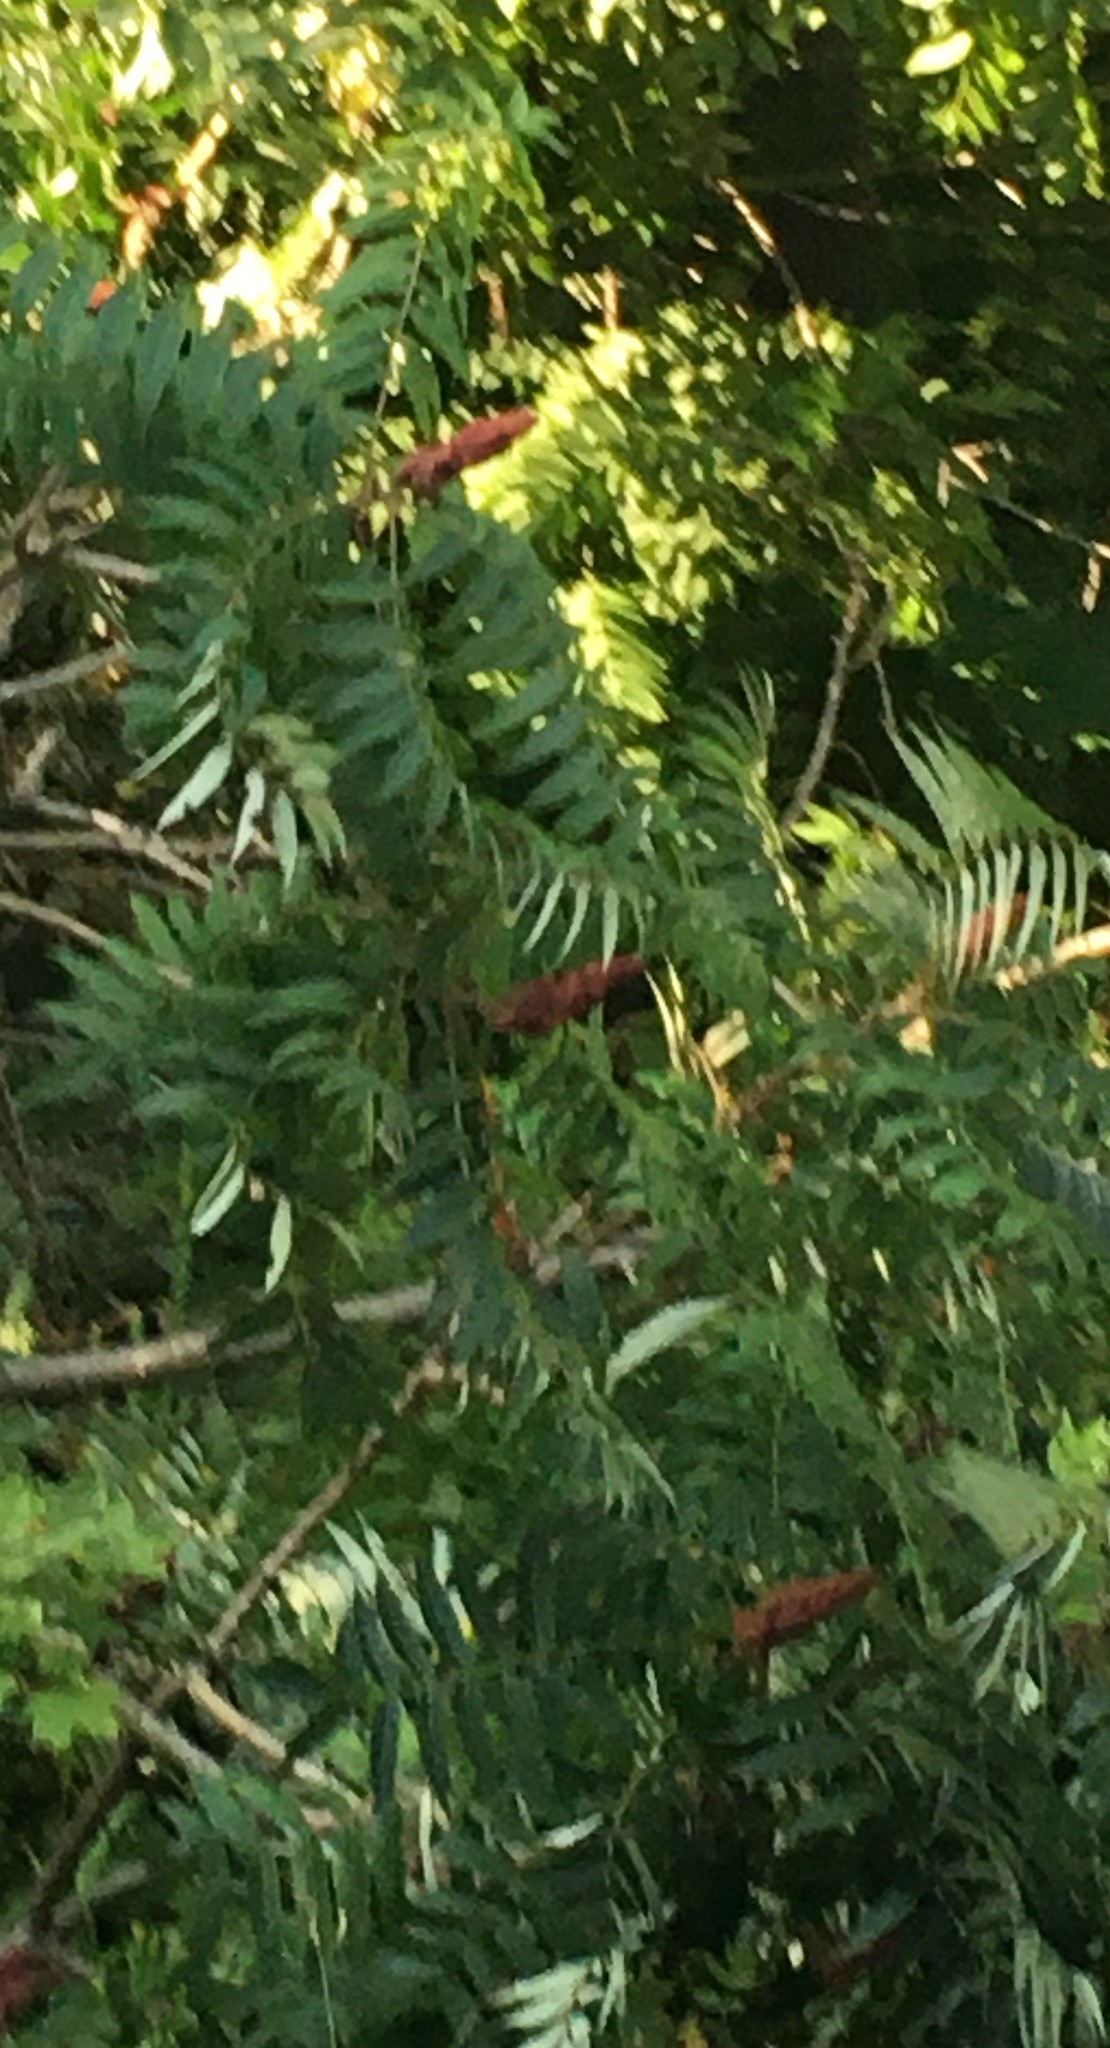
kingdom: Plantae
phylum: Tracheophyta
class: Magnoliopsida
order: Sapindales
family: Anacardiaceae
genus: Rhus
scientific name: Rhus typhina
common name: Staghorn sumac
